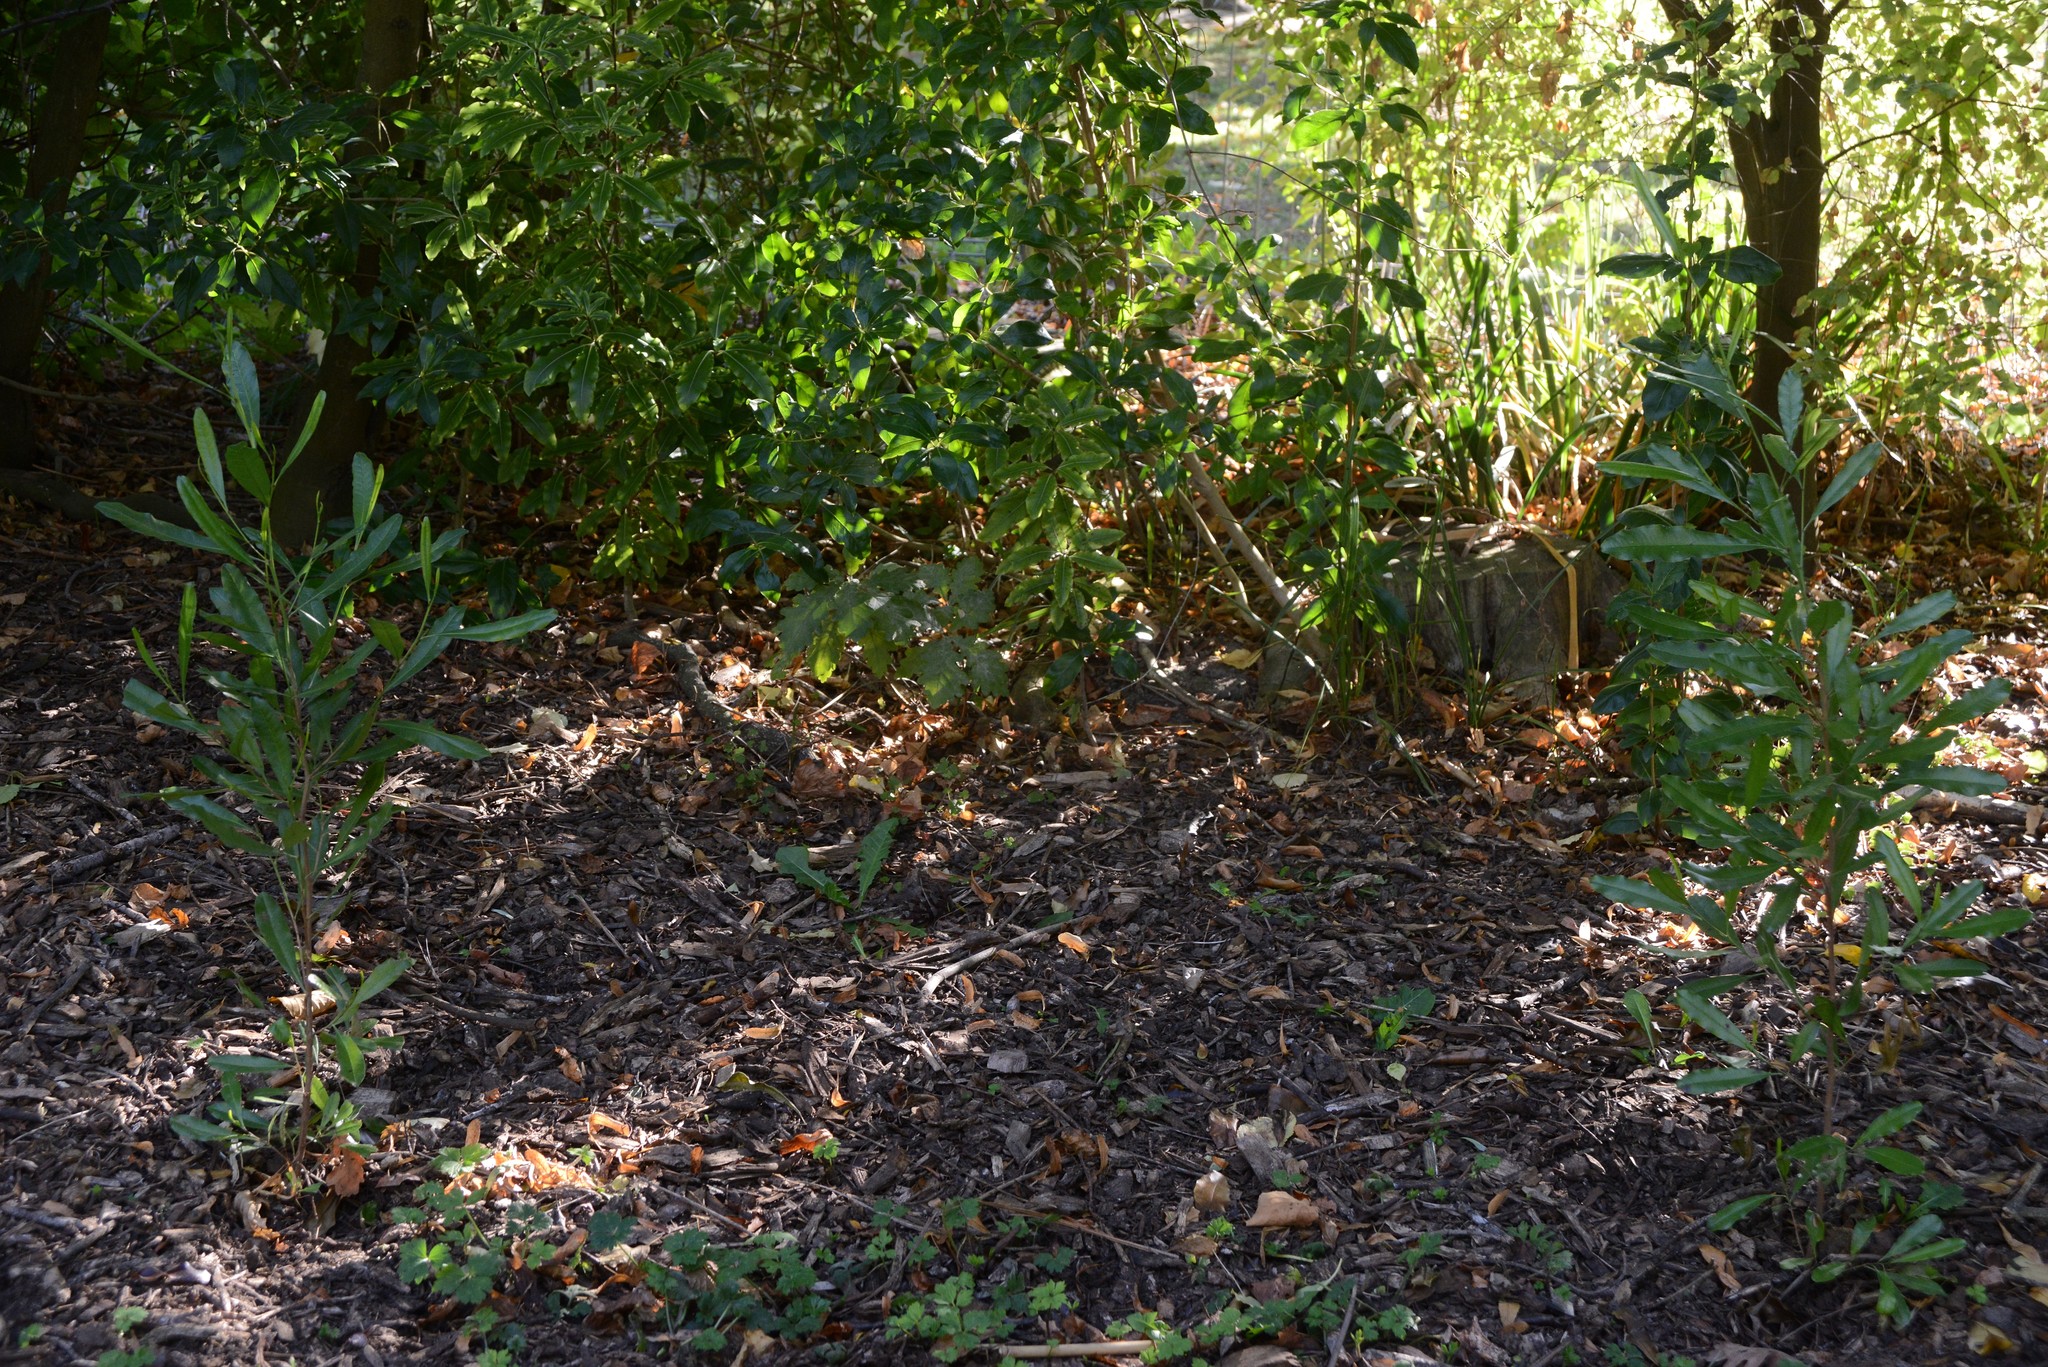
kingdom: Plantae
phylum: Tracheophyta
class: Magnoliopsida
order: Apiales
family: Pittosporaceae
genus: Pittosporum
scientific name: Pittosporum eugenioides
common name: Lemonwood
